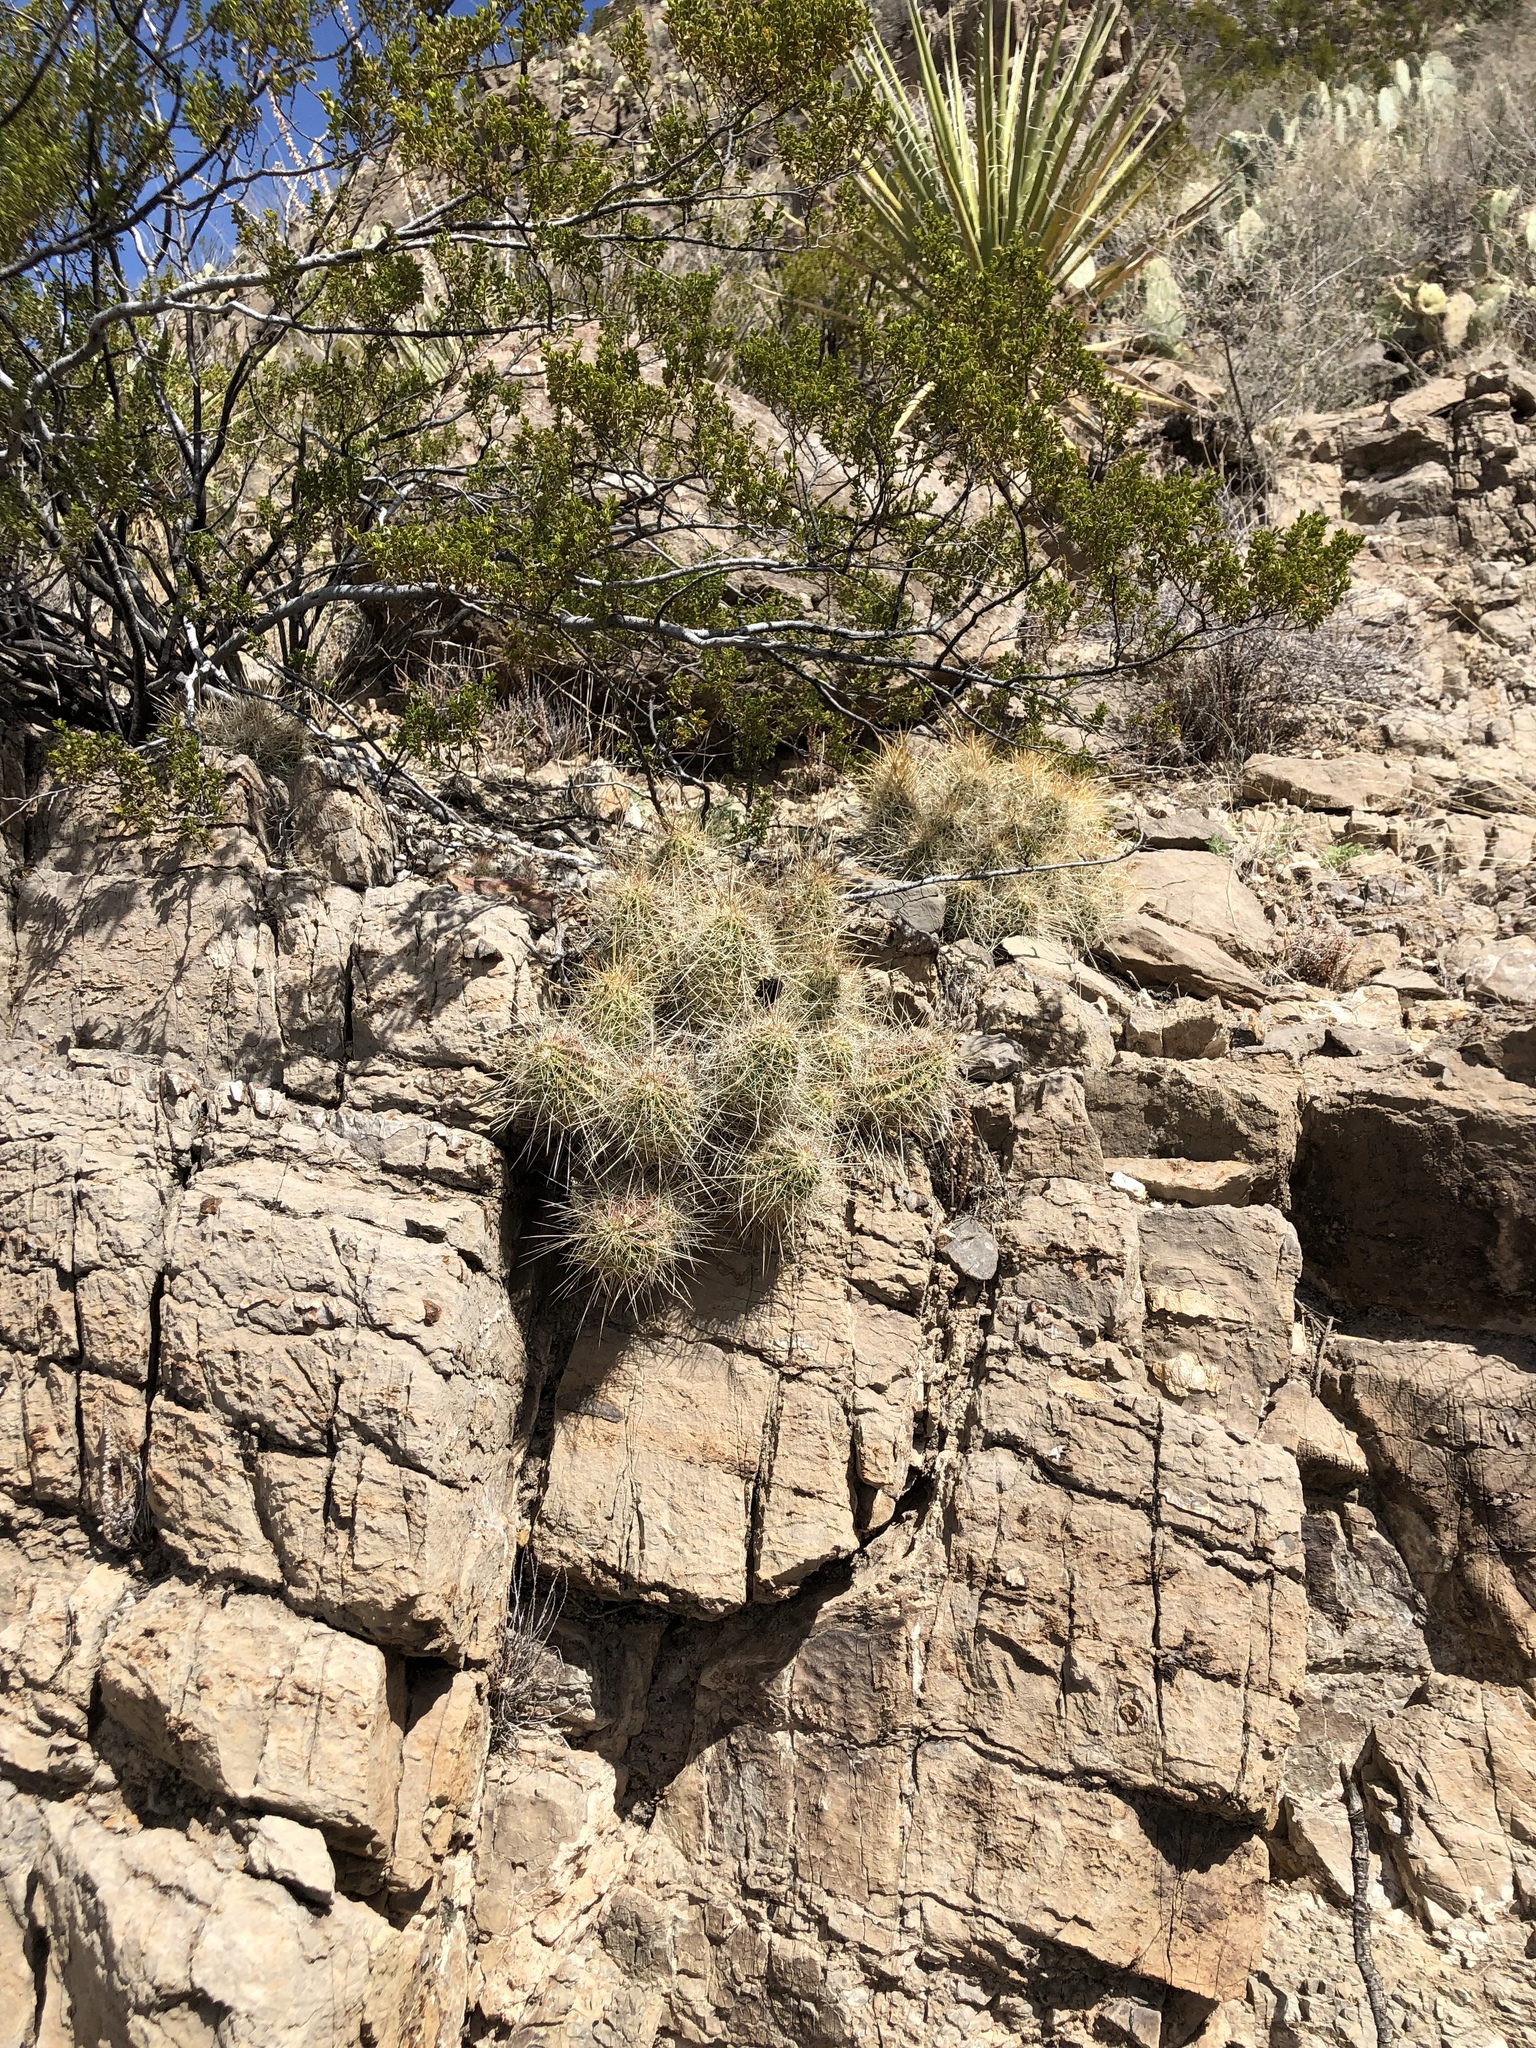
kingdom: Plantae
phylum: Tracheophyta
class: Magnoliopsida
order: Caryophyllales
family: Cactaceae
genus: Echinocereus
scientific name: Echinocereus stramineus
